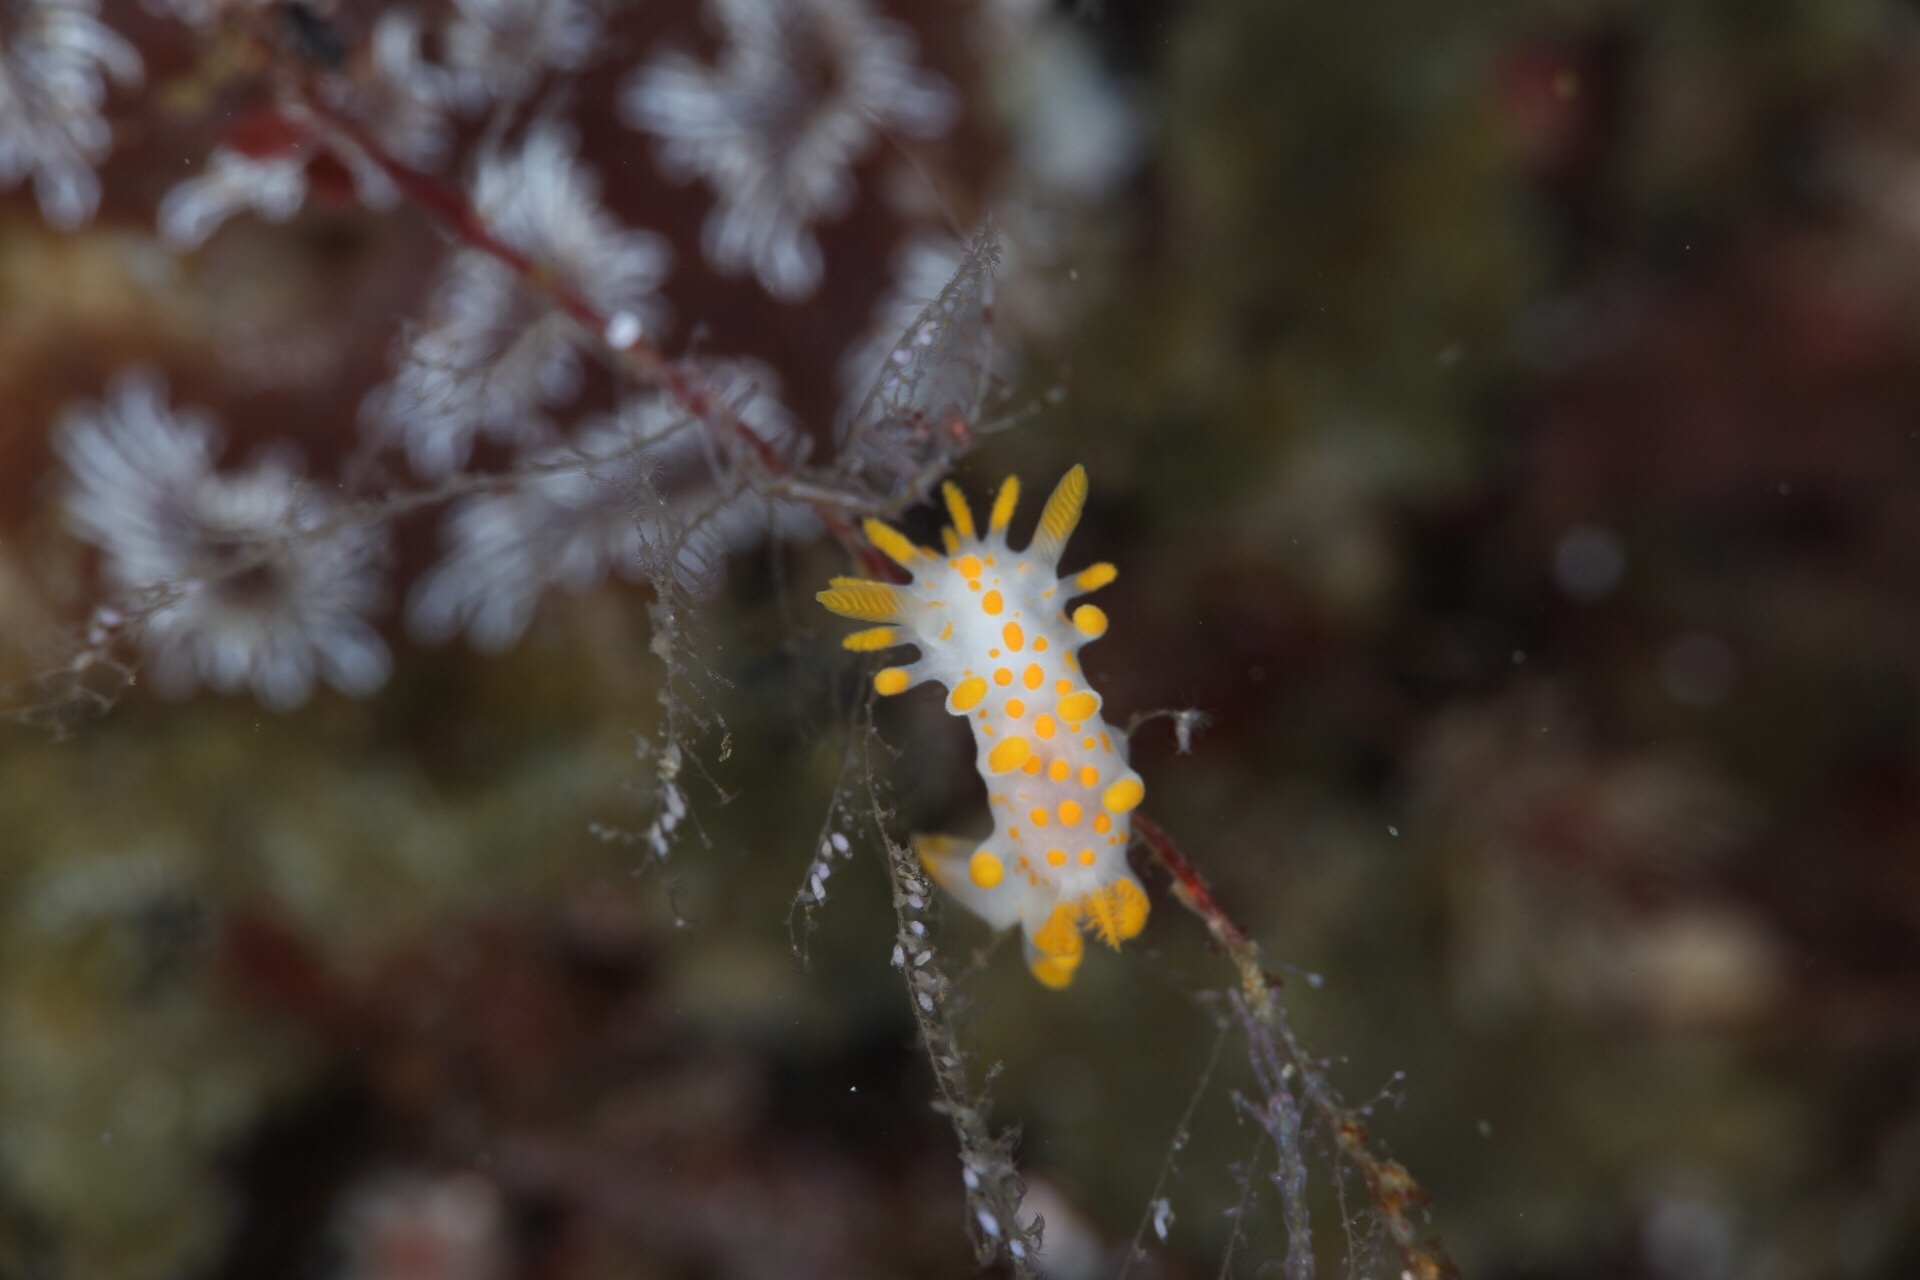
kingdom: Animalia
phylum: Mollusca
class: Gastropoda
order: Nudibranchia
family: Polyceridae
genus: Limacia
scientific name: Limacia clavigera
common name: Orange-clubbed sea slug
